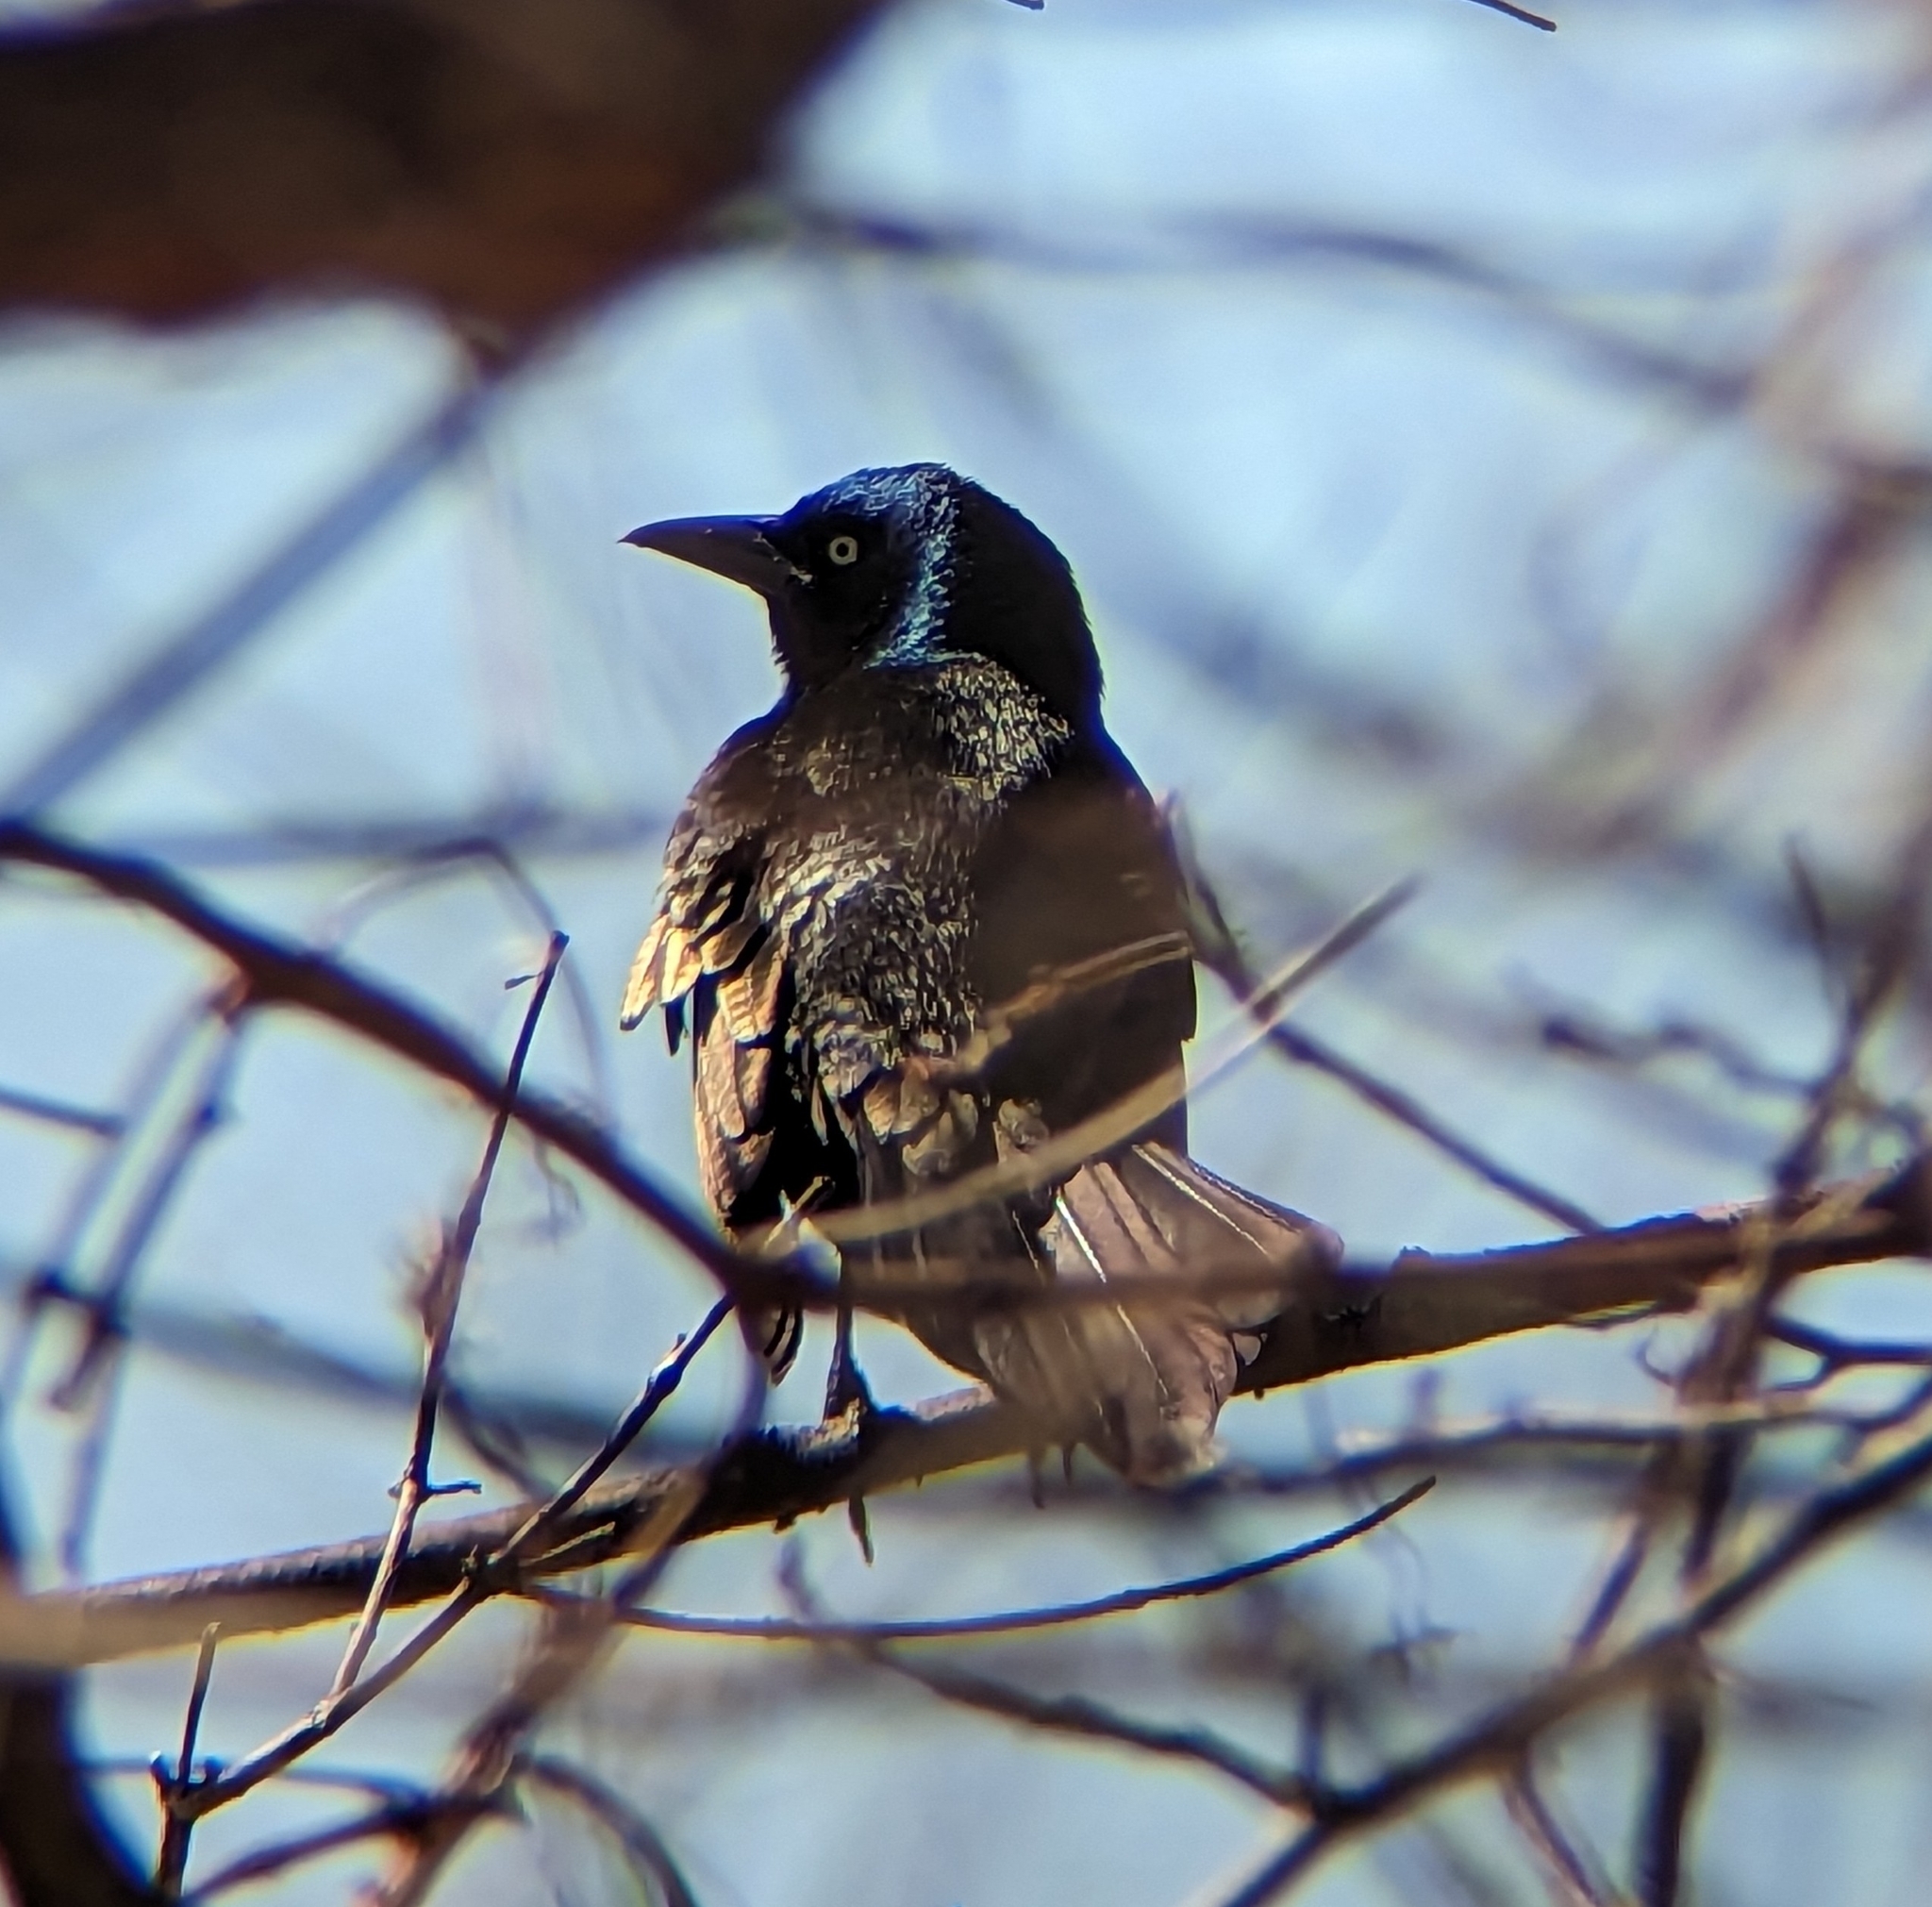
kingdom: Animalia
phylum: Chordata
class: Aves
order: Passeriformes
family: Icteridae
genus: Quiscalus
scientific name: Quiscalus quiscula
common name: Common grackle
